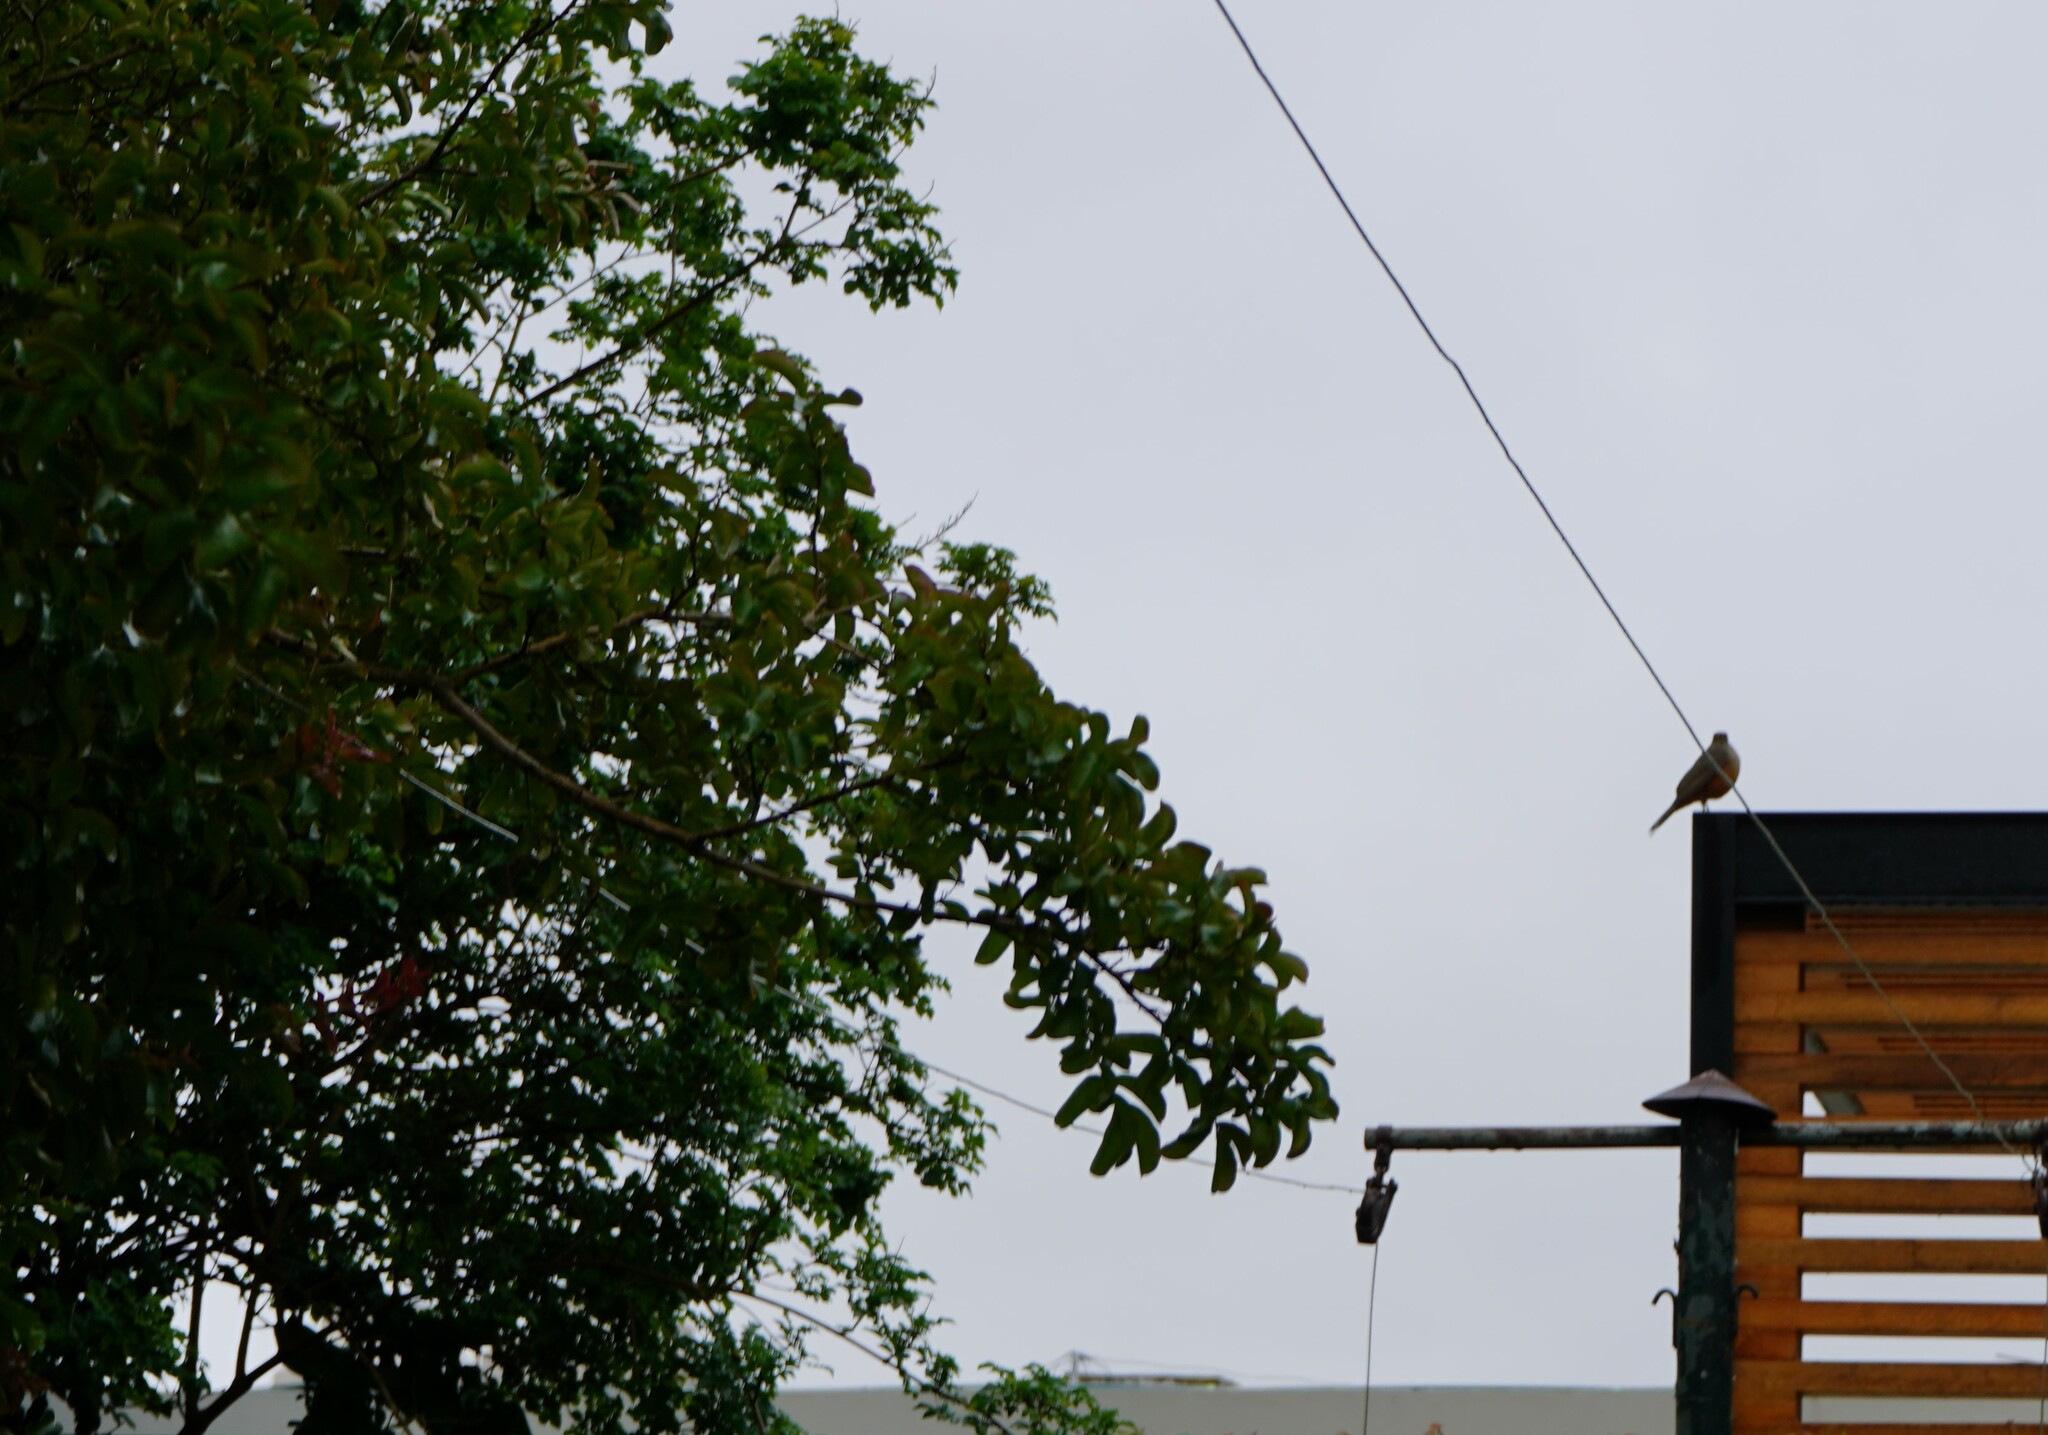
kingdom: Animalia
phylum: Chordata
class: Aves
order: Passeriformes
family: Turdidae
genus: Turdus
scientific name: Turdus rufiventris
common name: Rufous-bellied thrush
